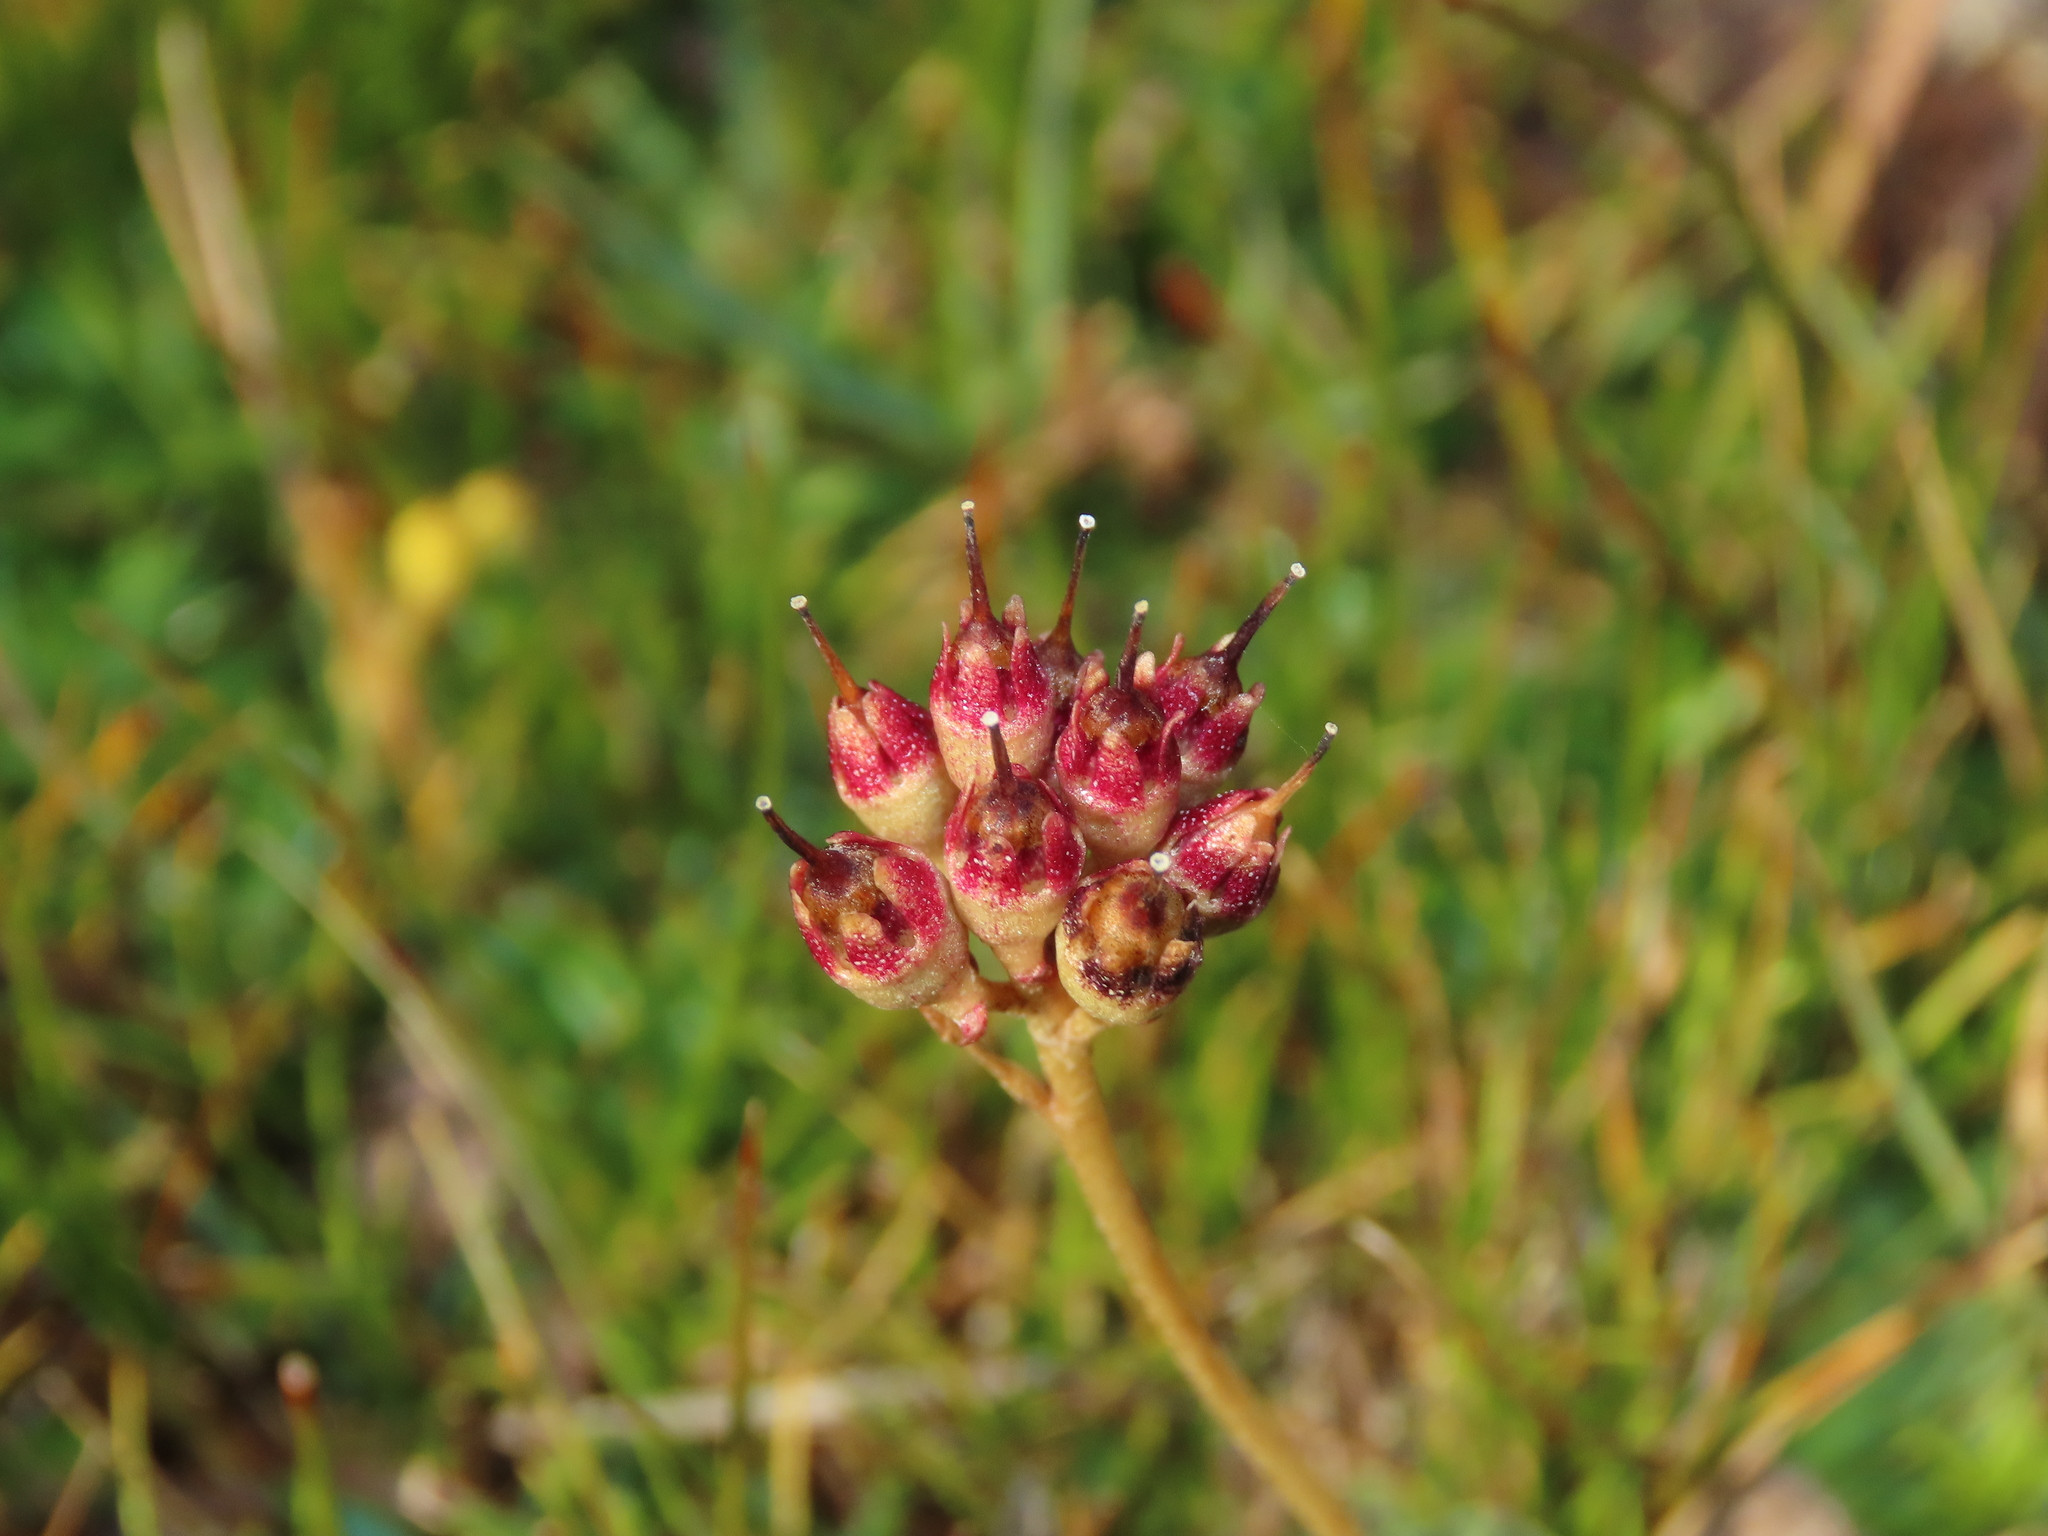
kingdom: Plantae
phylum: Tracheophyta
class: Magnoliopsida
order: Ericales
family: Primulaceae
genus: Samolus
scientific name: Samolus spathulatus
